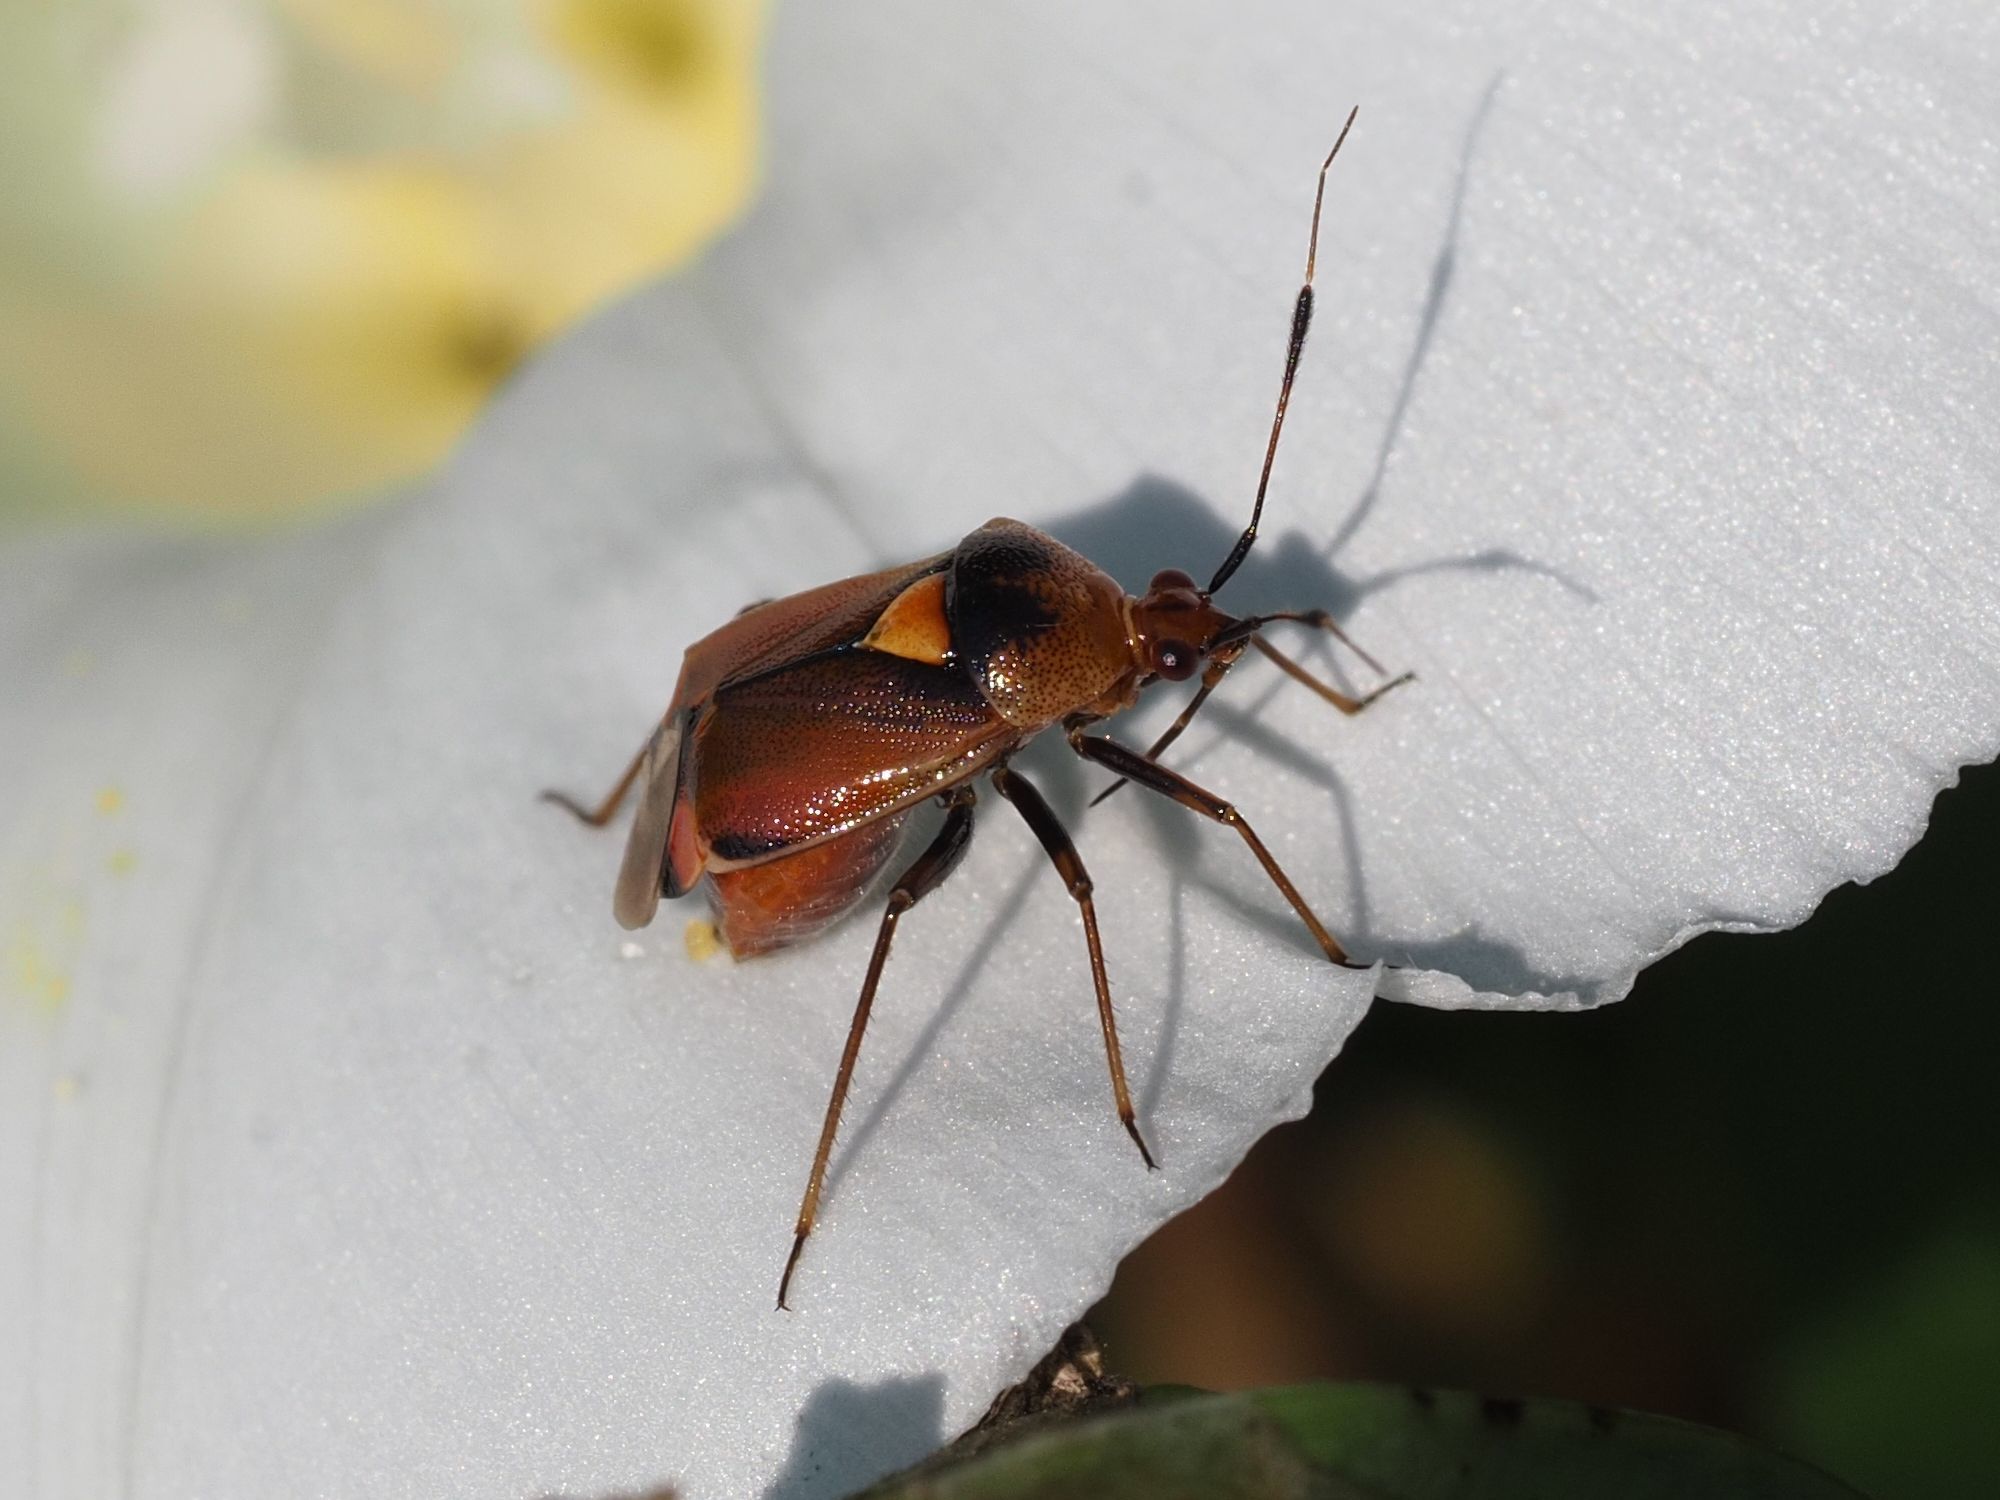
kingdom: Animalia
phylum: Arthropoda
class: Insecta
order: Hemiptera
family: Miridae
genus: Deraeocoris
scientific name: Deraeocoris ruber
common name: Plant bug
